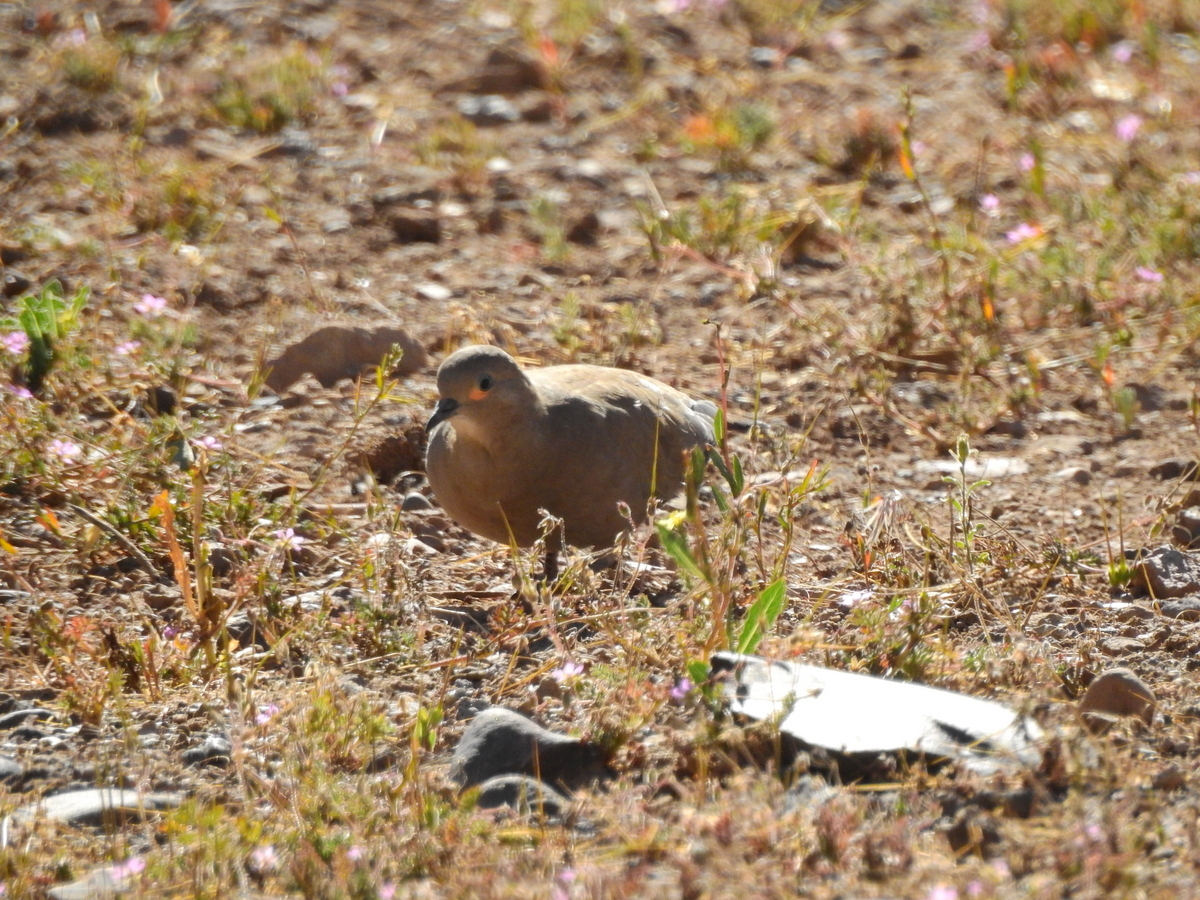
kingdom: Animalia
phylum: Chordata
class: Aves
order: Columbiformes
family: Columbidae
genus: Metriopelia
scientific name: Metriopelia melanoptera
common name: Black-winged ground dove
